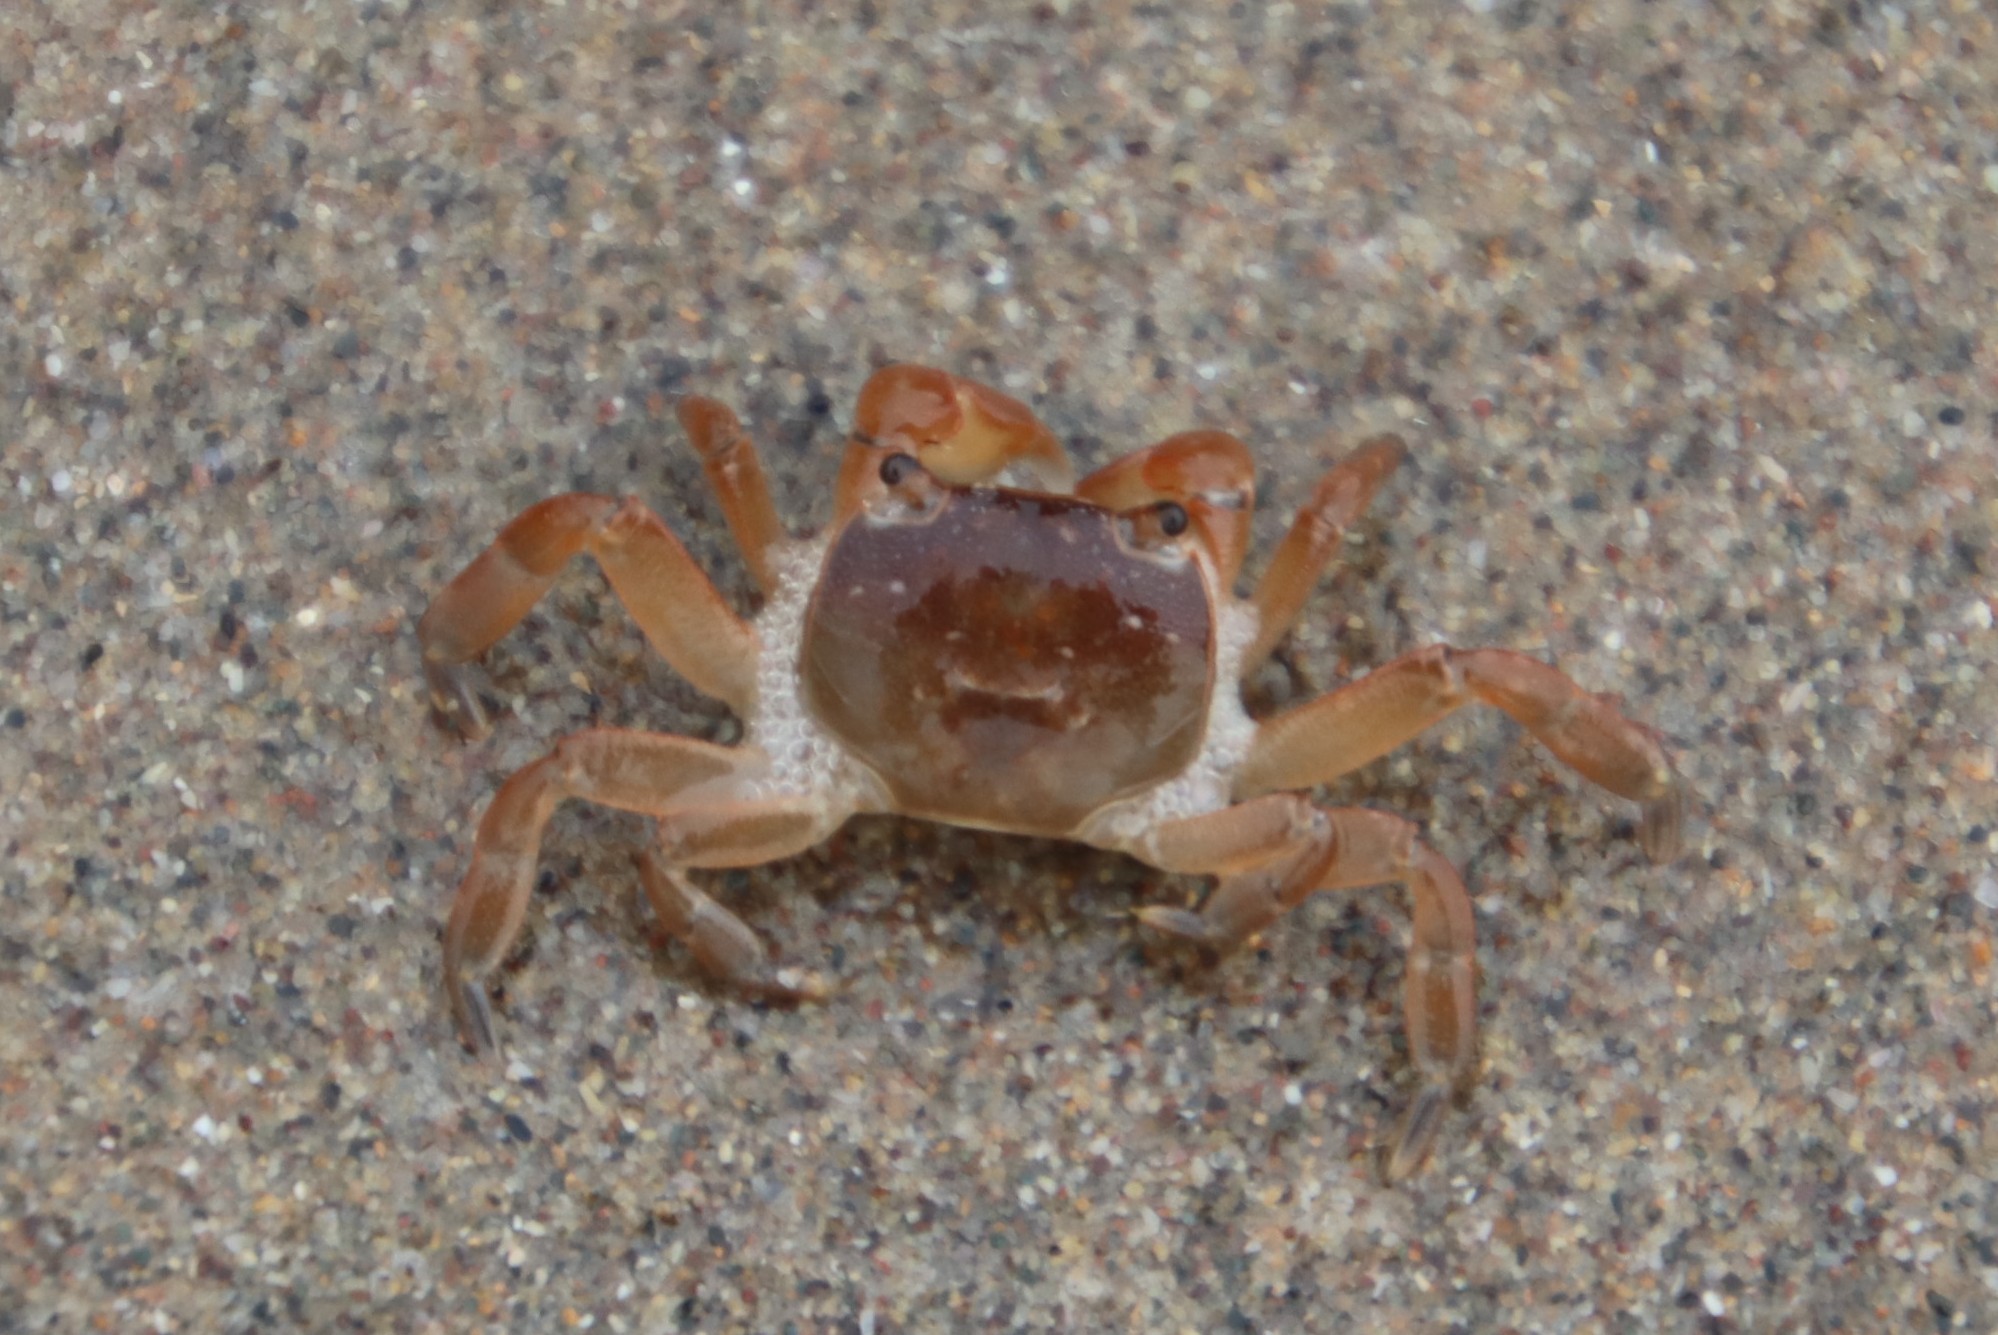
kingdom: Animalia
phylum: Arthropoda
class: Malacostraca
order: Decapoda
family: Varunidae
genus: Cyclograpsus
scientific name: Cyclograpsus punctatus
